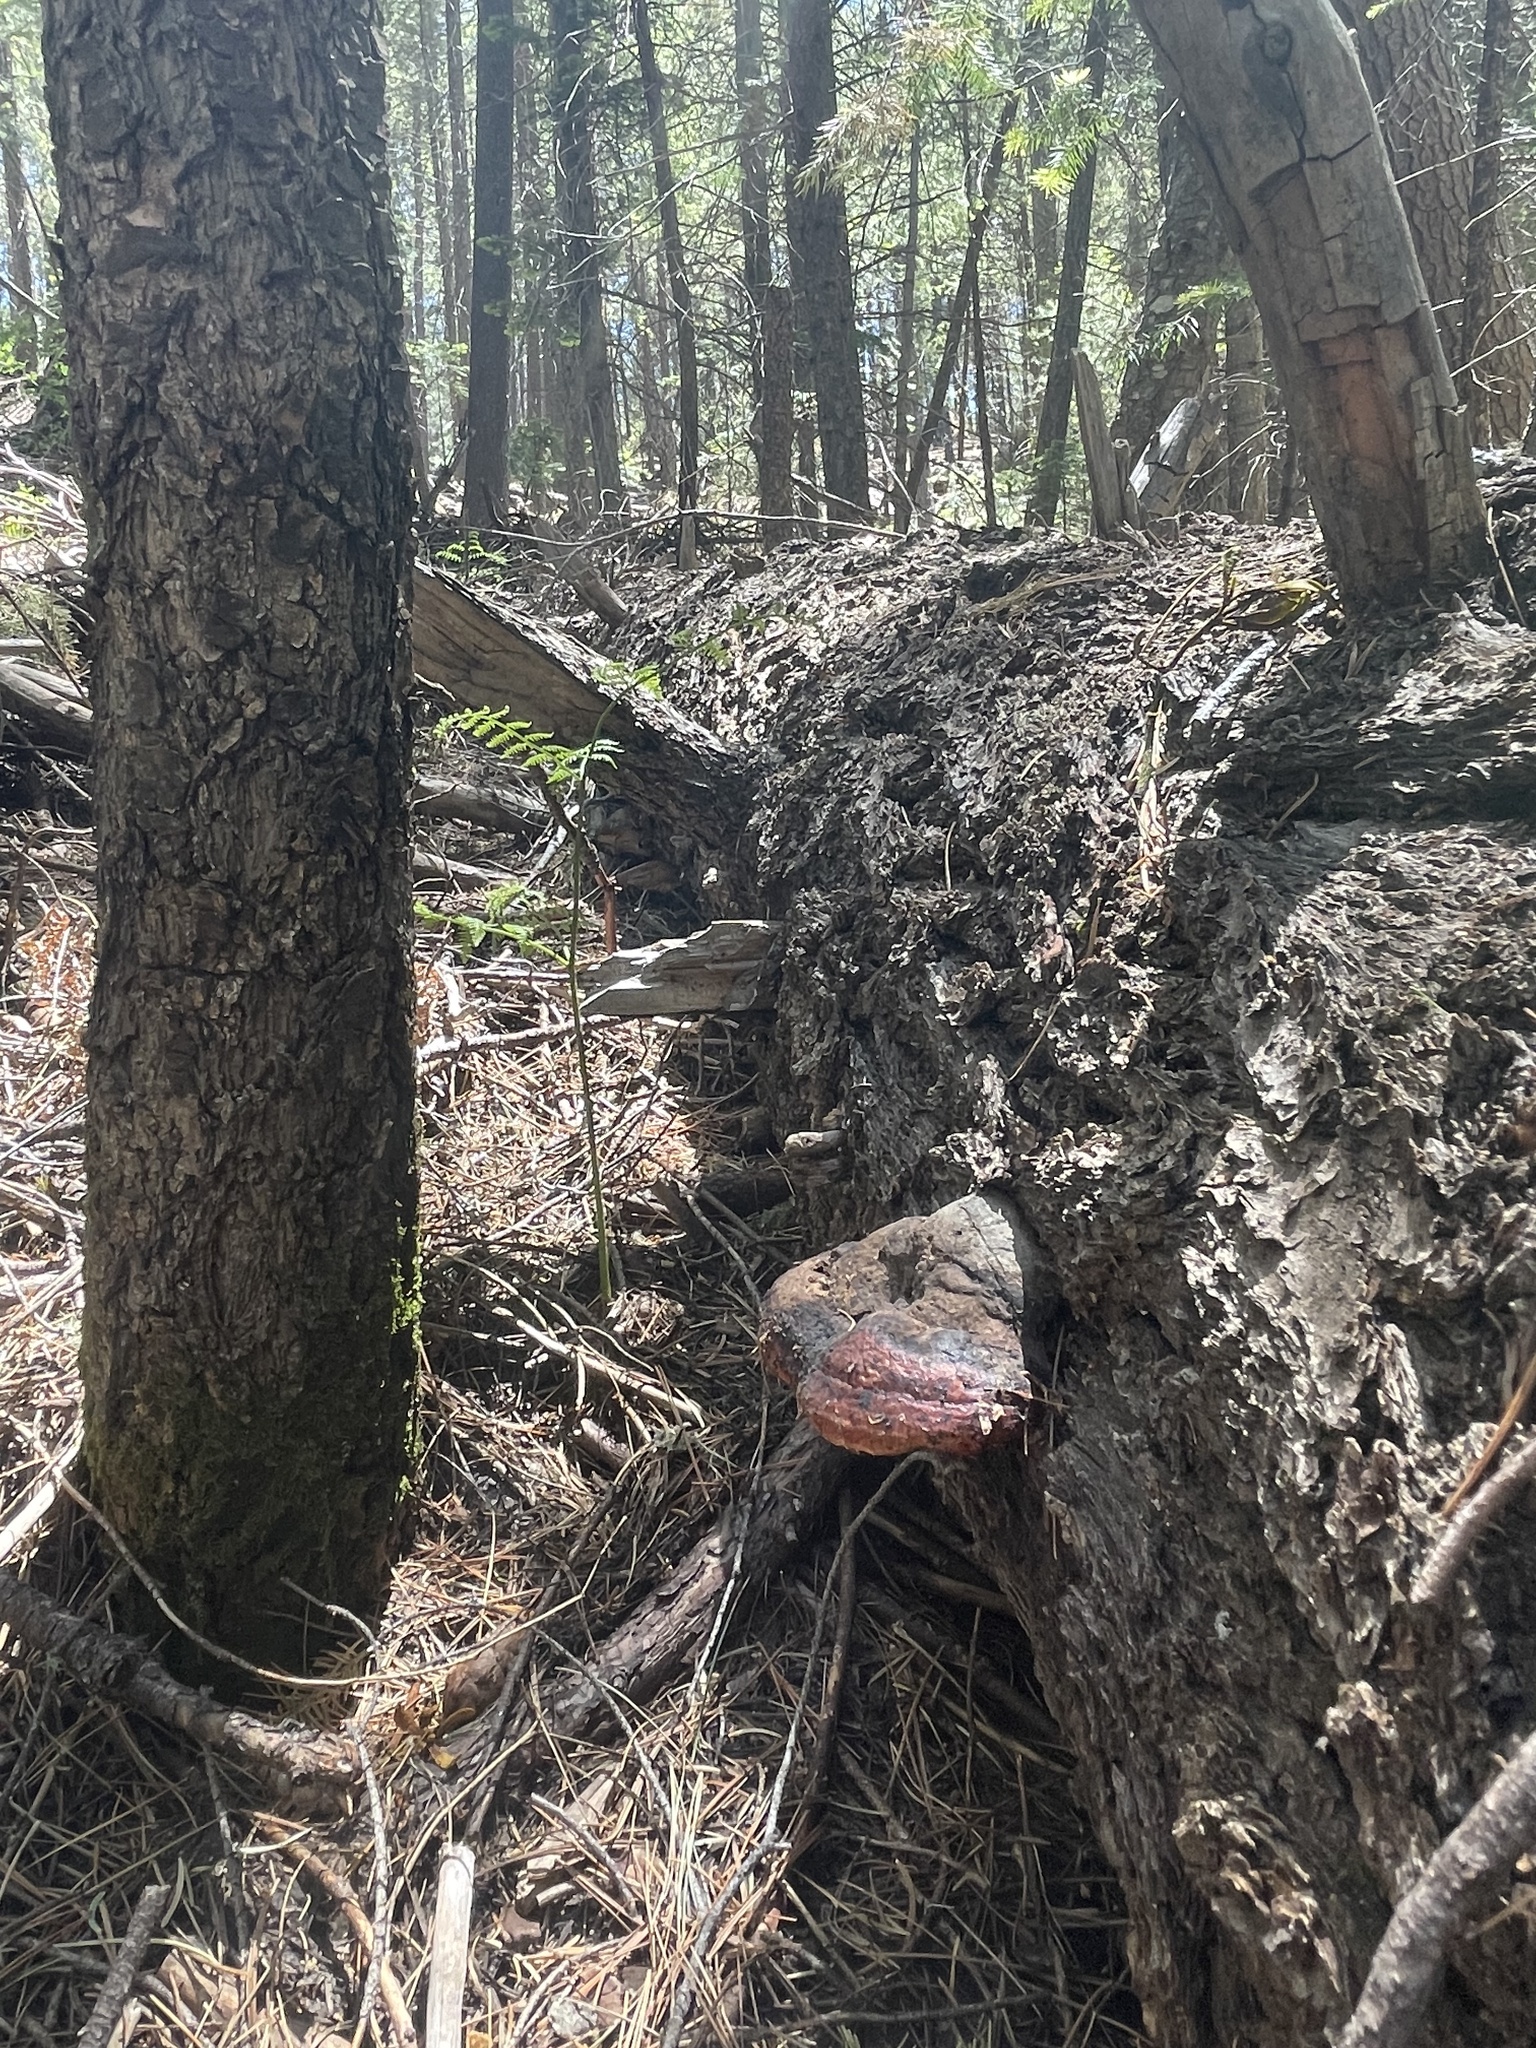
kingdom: Fungi
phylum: Basidiomycota
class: Agaricomycetes
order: Polyporales
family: Fomitopsidaceae
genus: Fomitopsis
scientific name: Fomitopsis schrenkii
